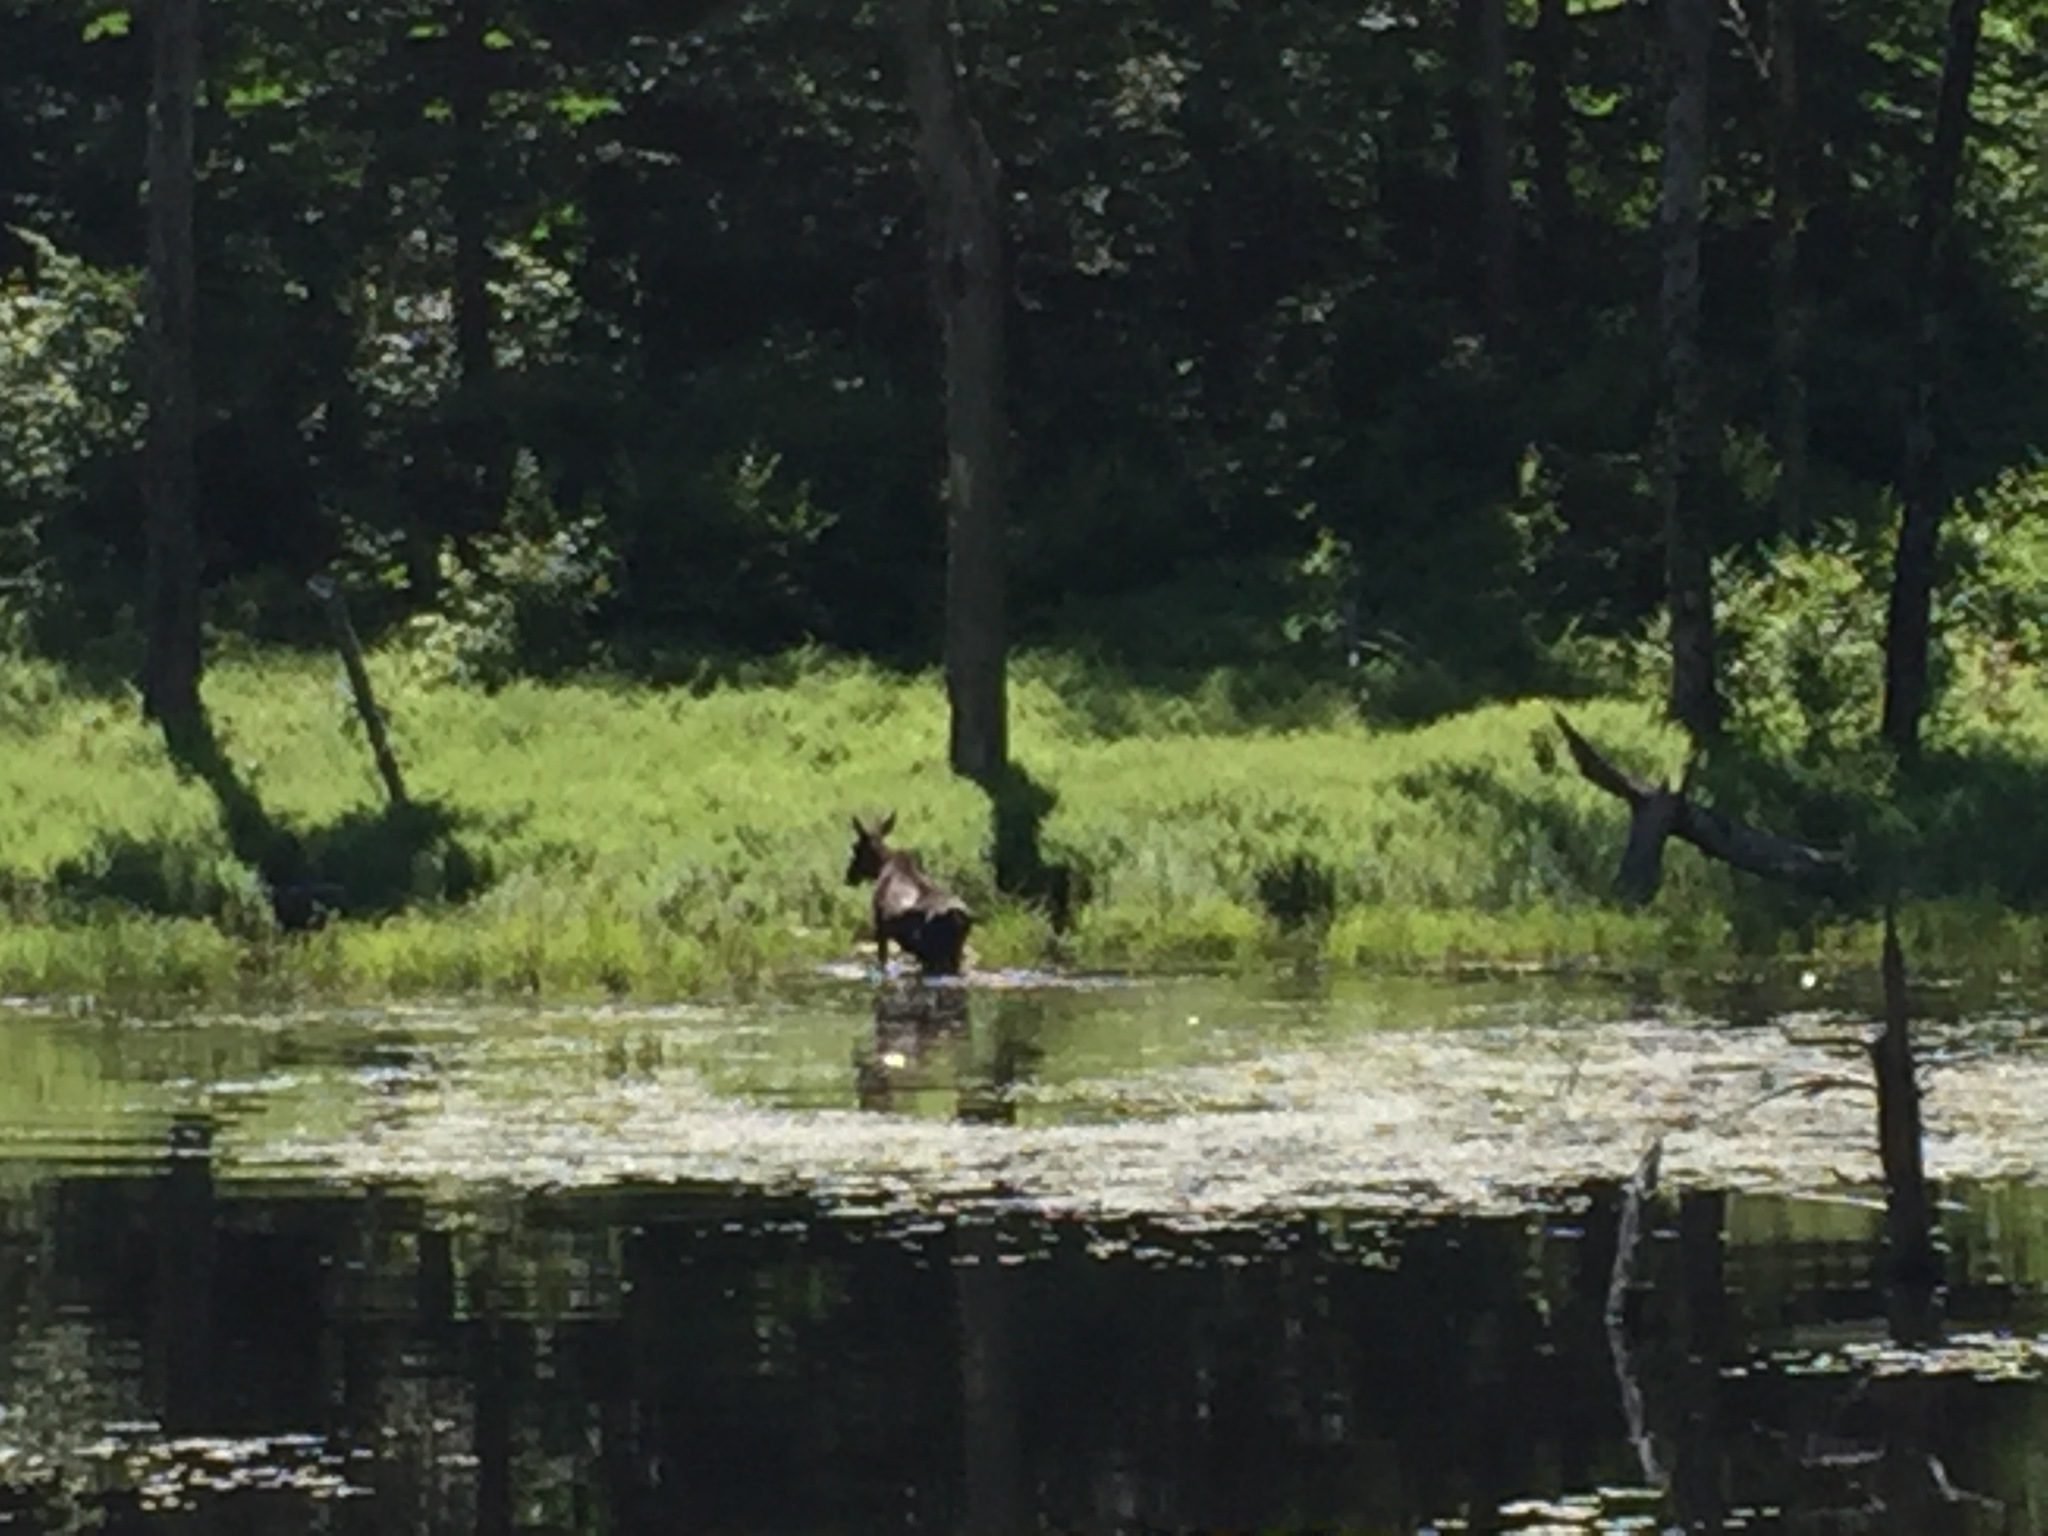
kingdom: Animalia
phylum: Chordata
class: Mammalia
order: Artiodactyla
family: Cervidae
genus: Alces
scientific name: Alces alces
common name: Moose
